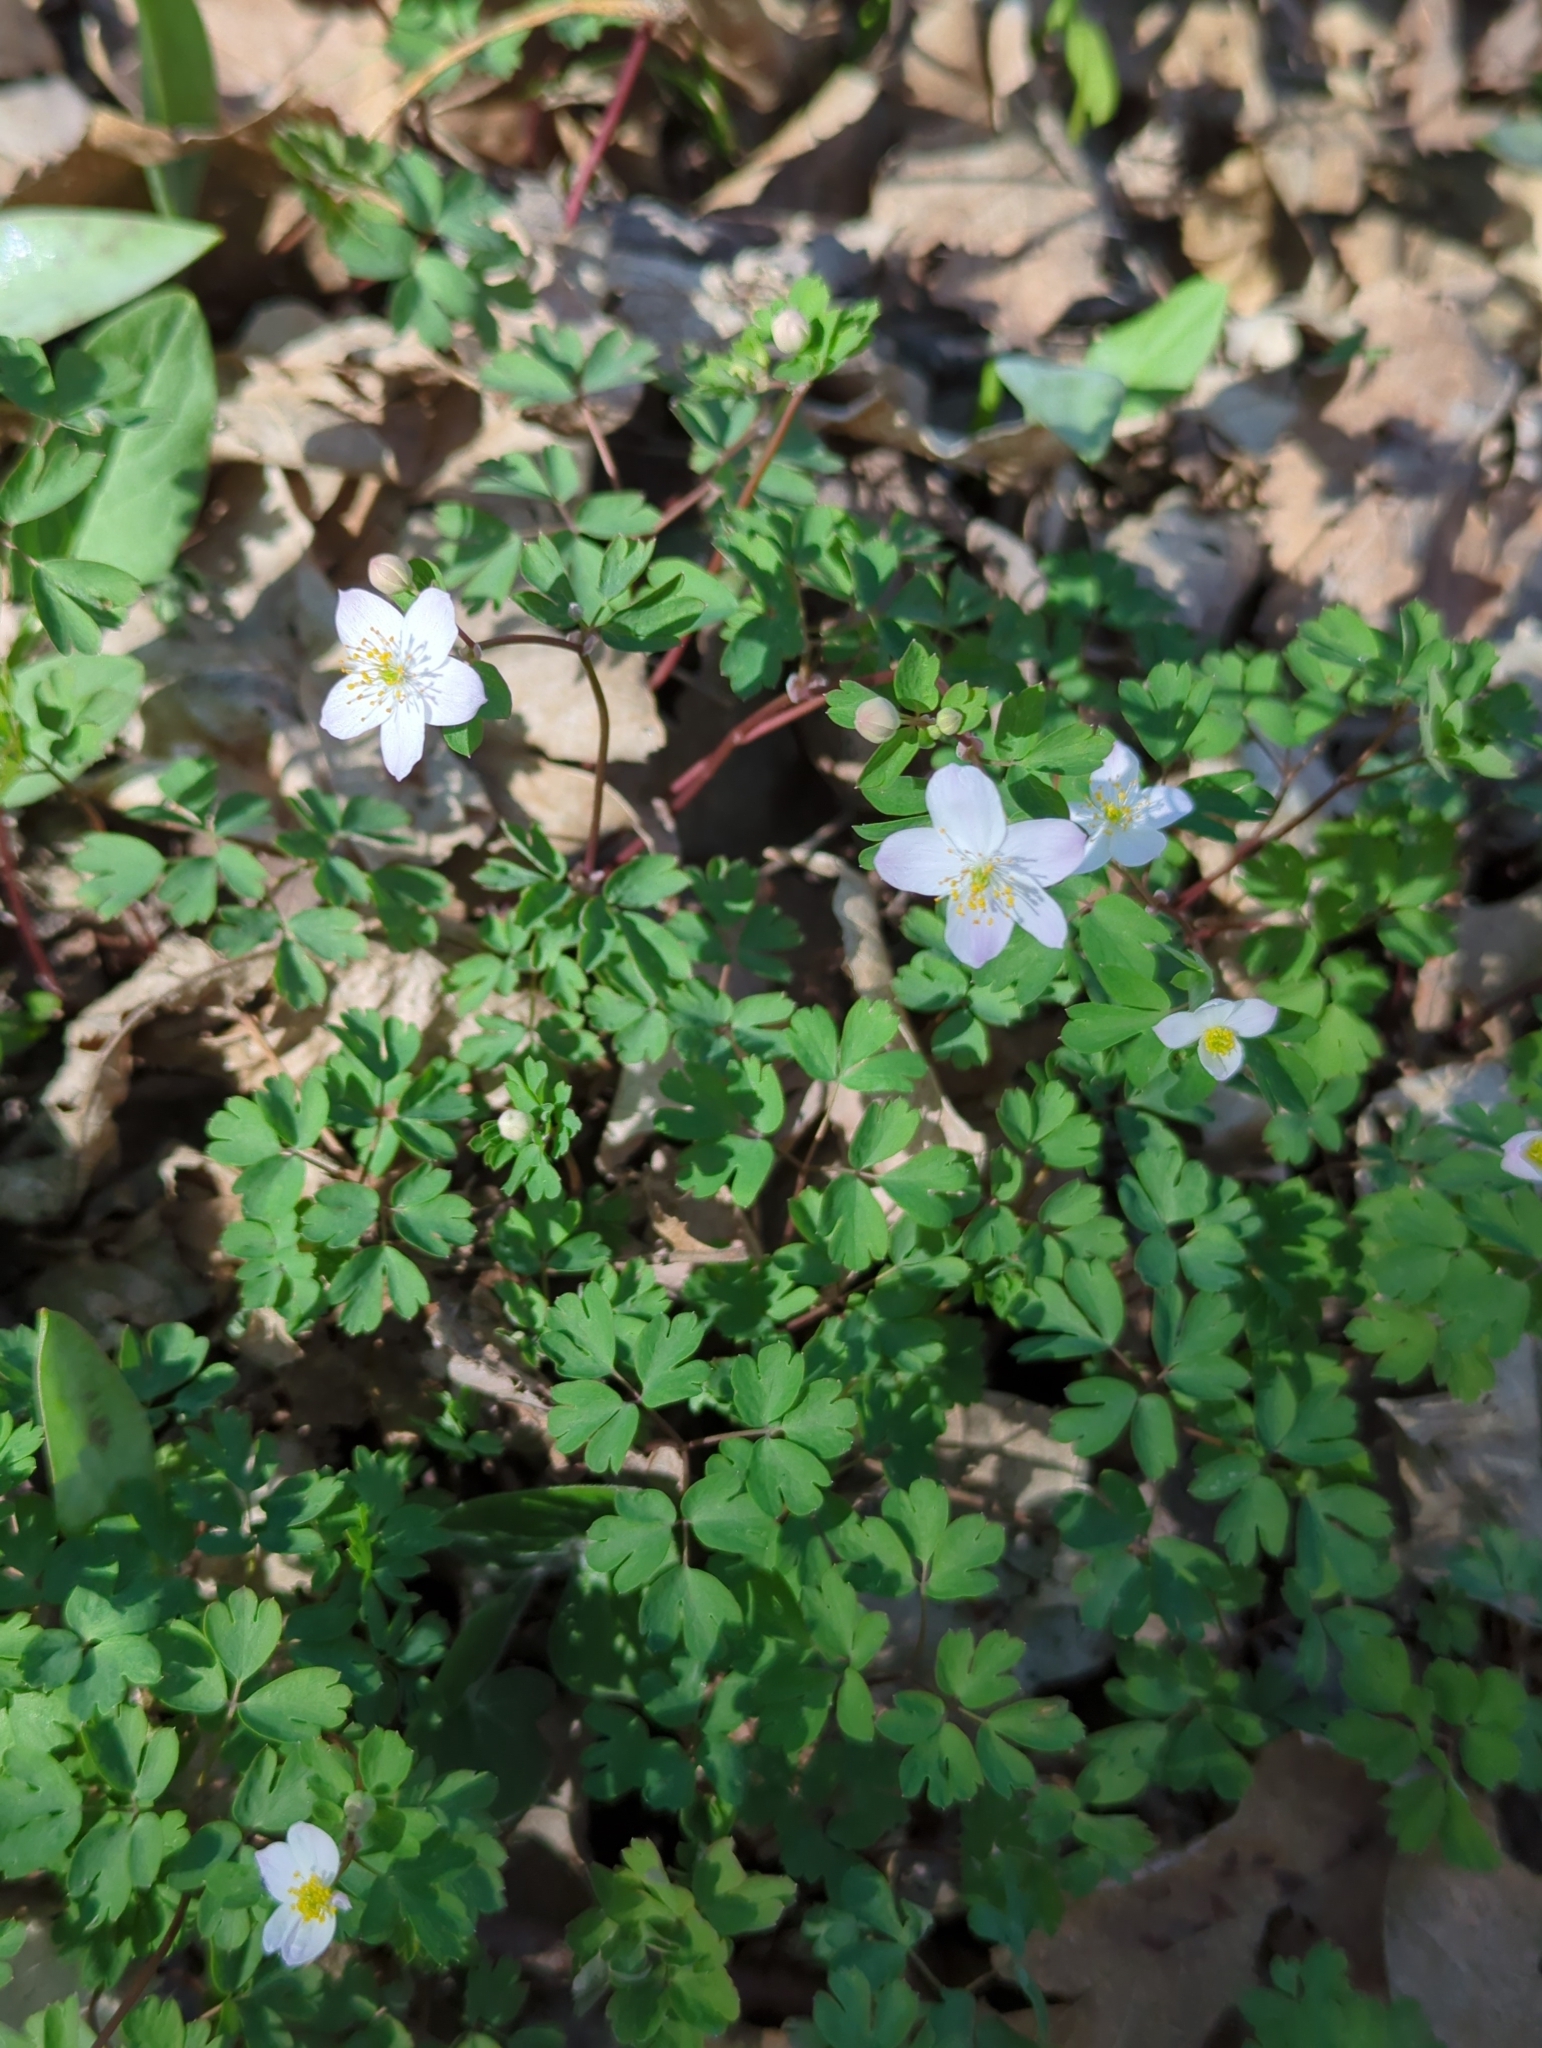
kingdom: Plantae
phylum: Tracheophyta
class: Magnoliopsida
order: Ranunculales
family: Ranunculaceae
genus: Enemion
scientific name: Enemion biternatum
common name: Eastern false rue-anemone
